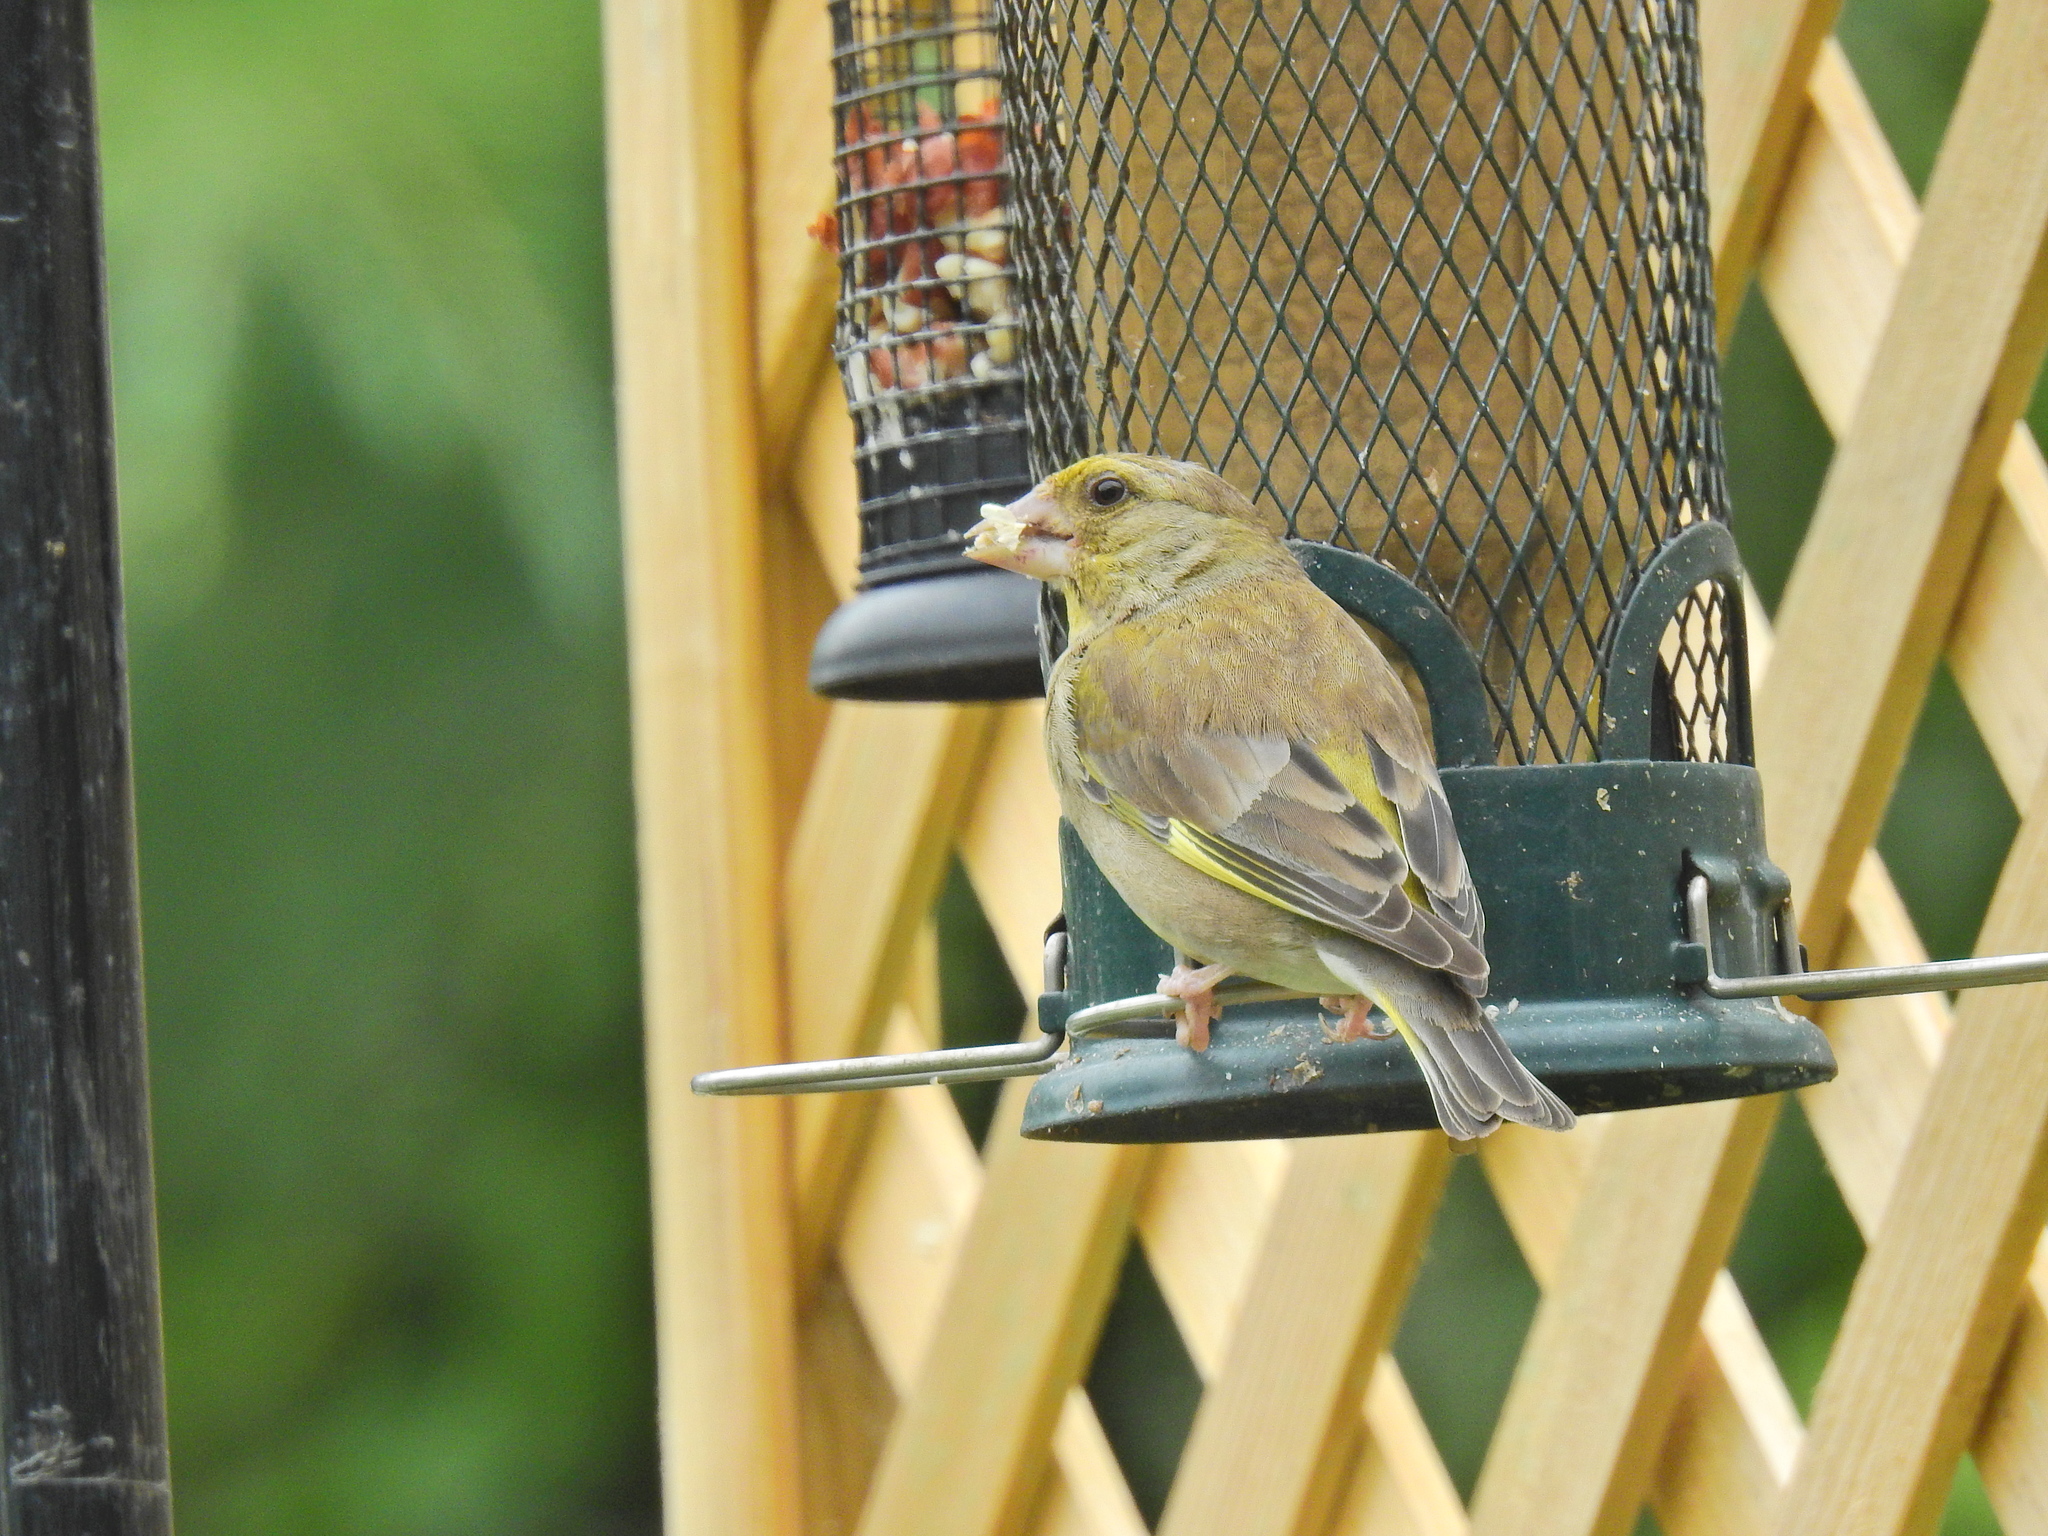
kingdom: Plantae
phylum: Tracheophyta
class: Liliopsida
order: Poales
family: Poaceae
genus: Chloris
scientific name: Chloris chloris
